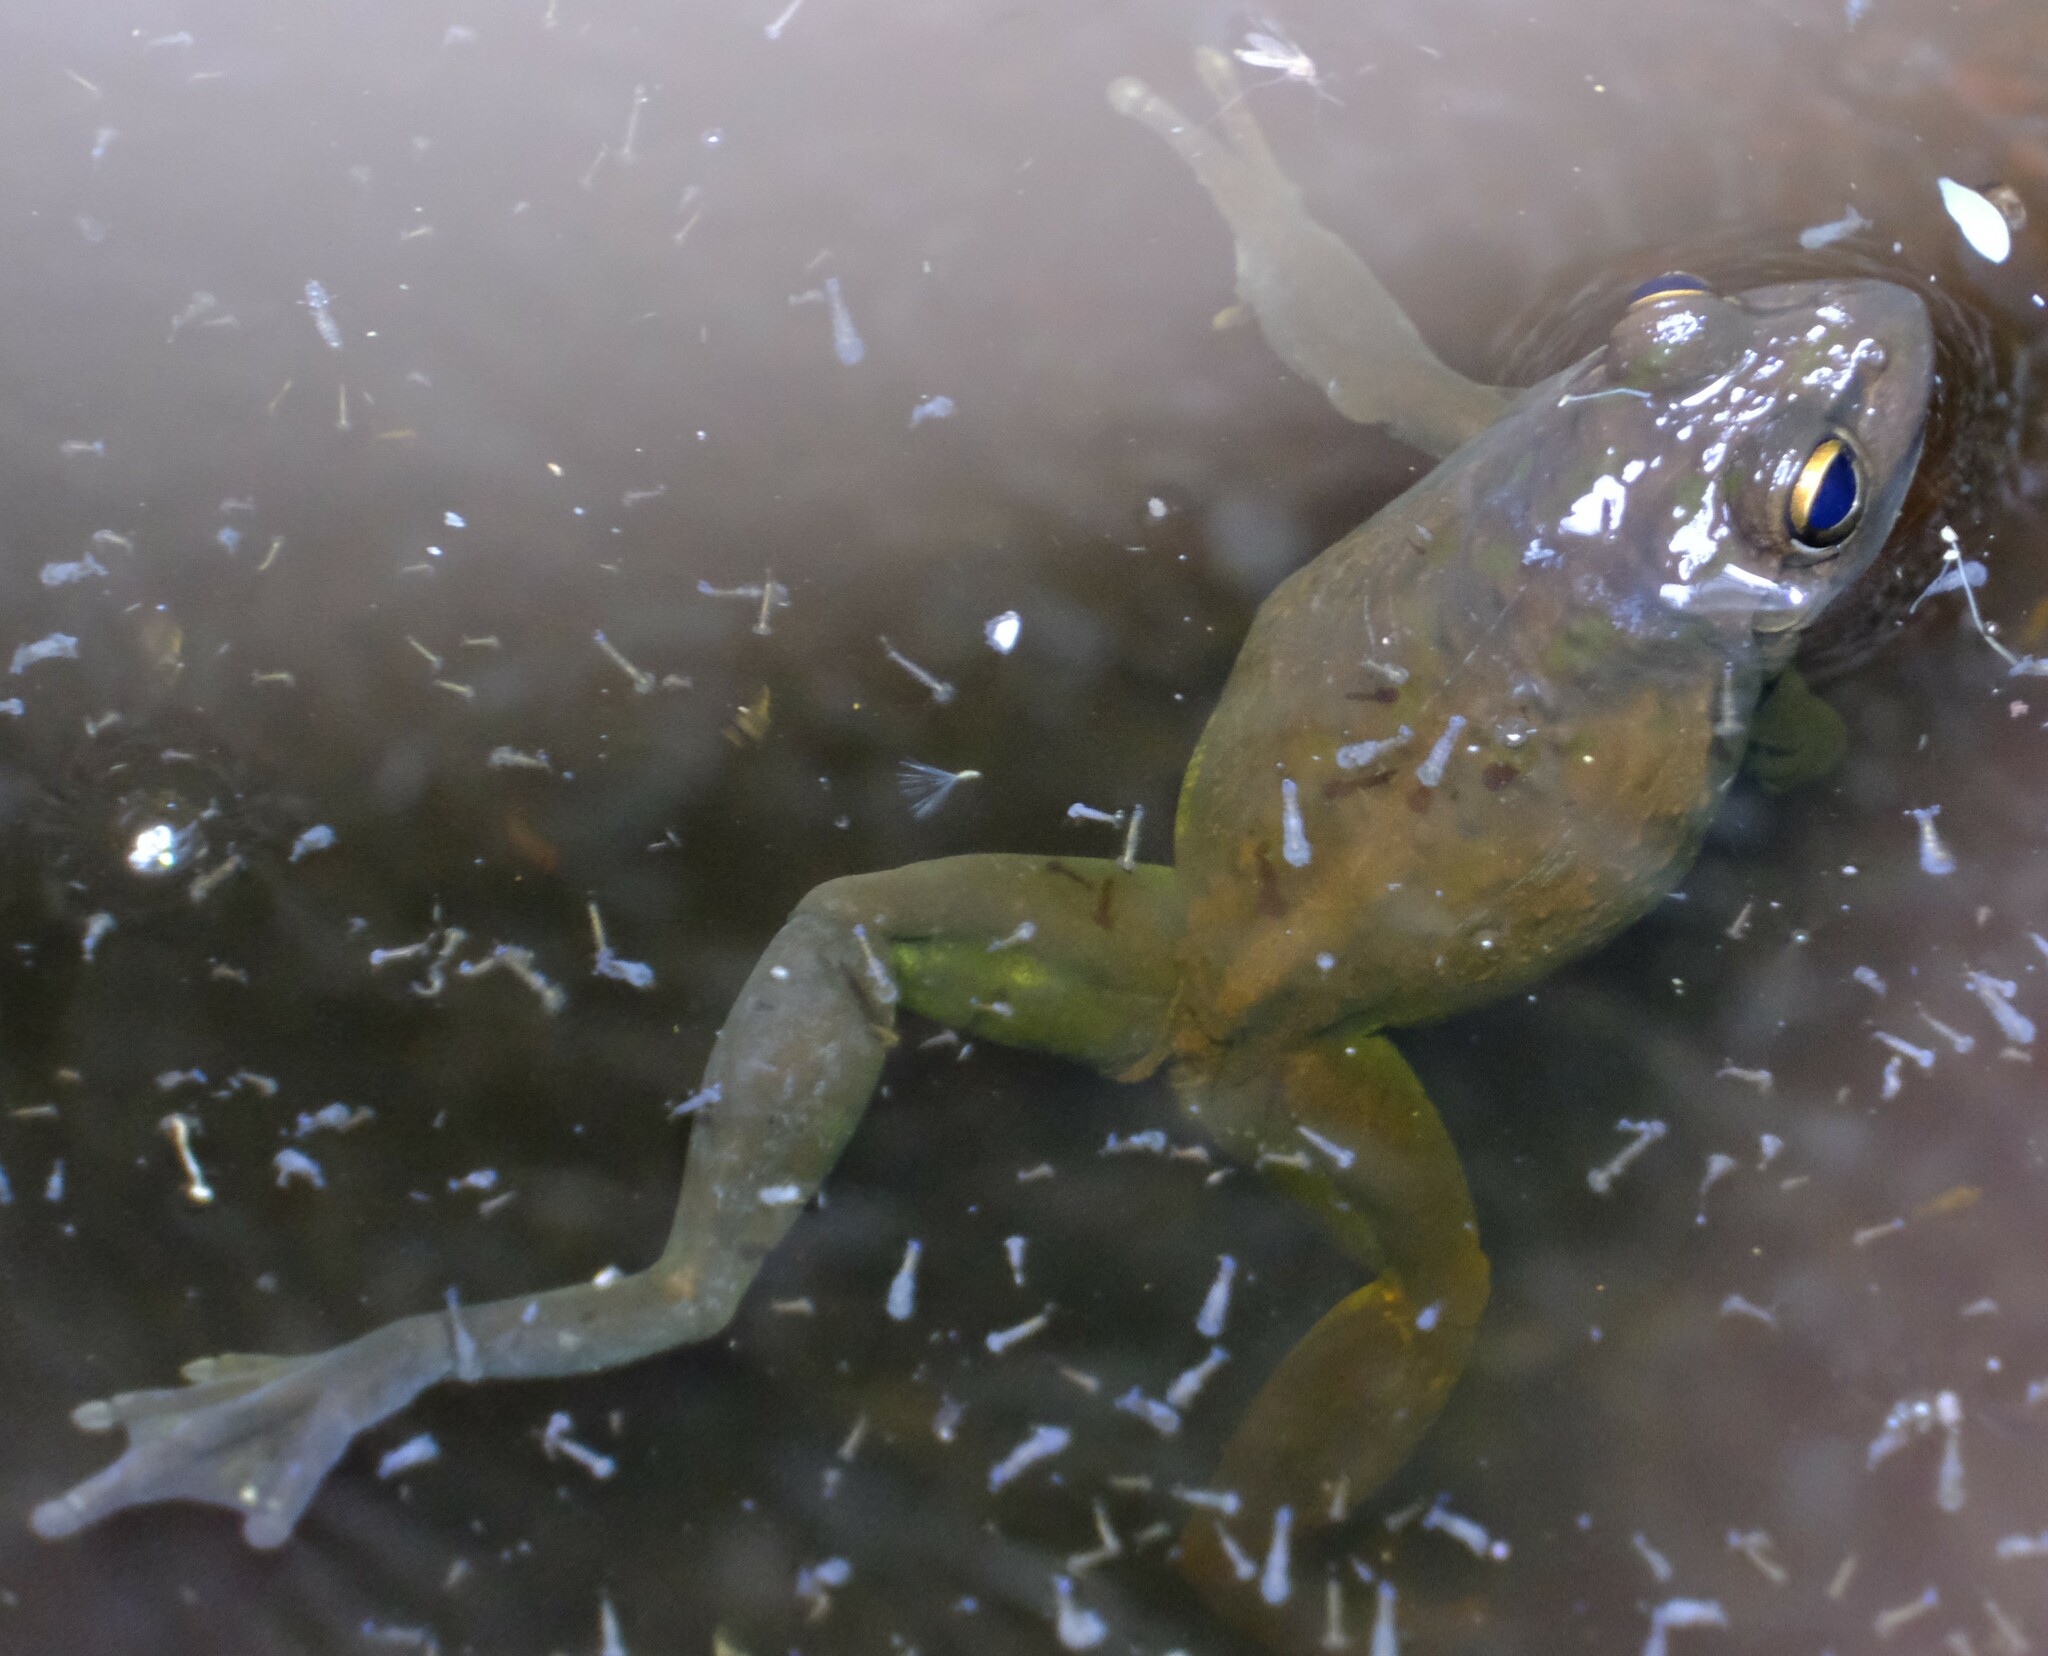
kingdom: Animalia
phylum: Chordata
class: Amphibia
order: Anura
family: Pelodryadidae
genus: Ranoidea
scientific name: Ranoidea moorei
